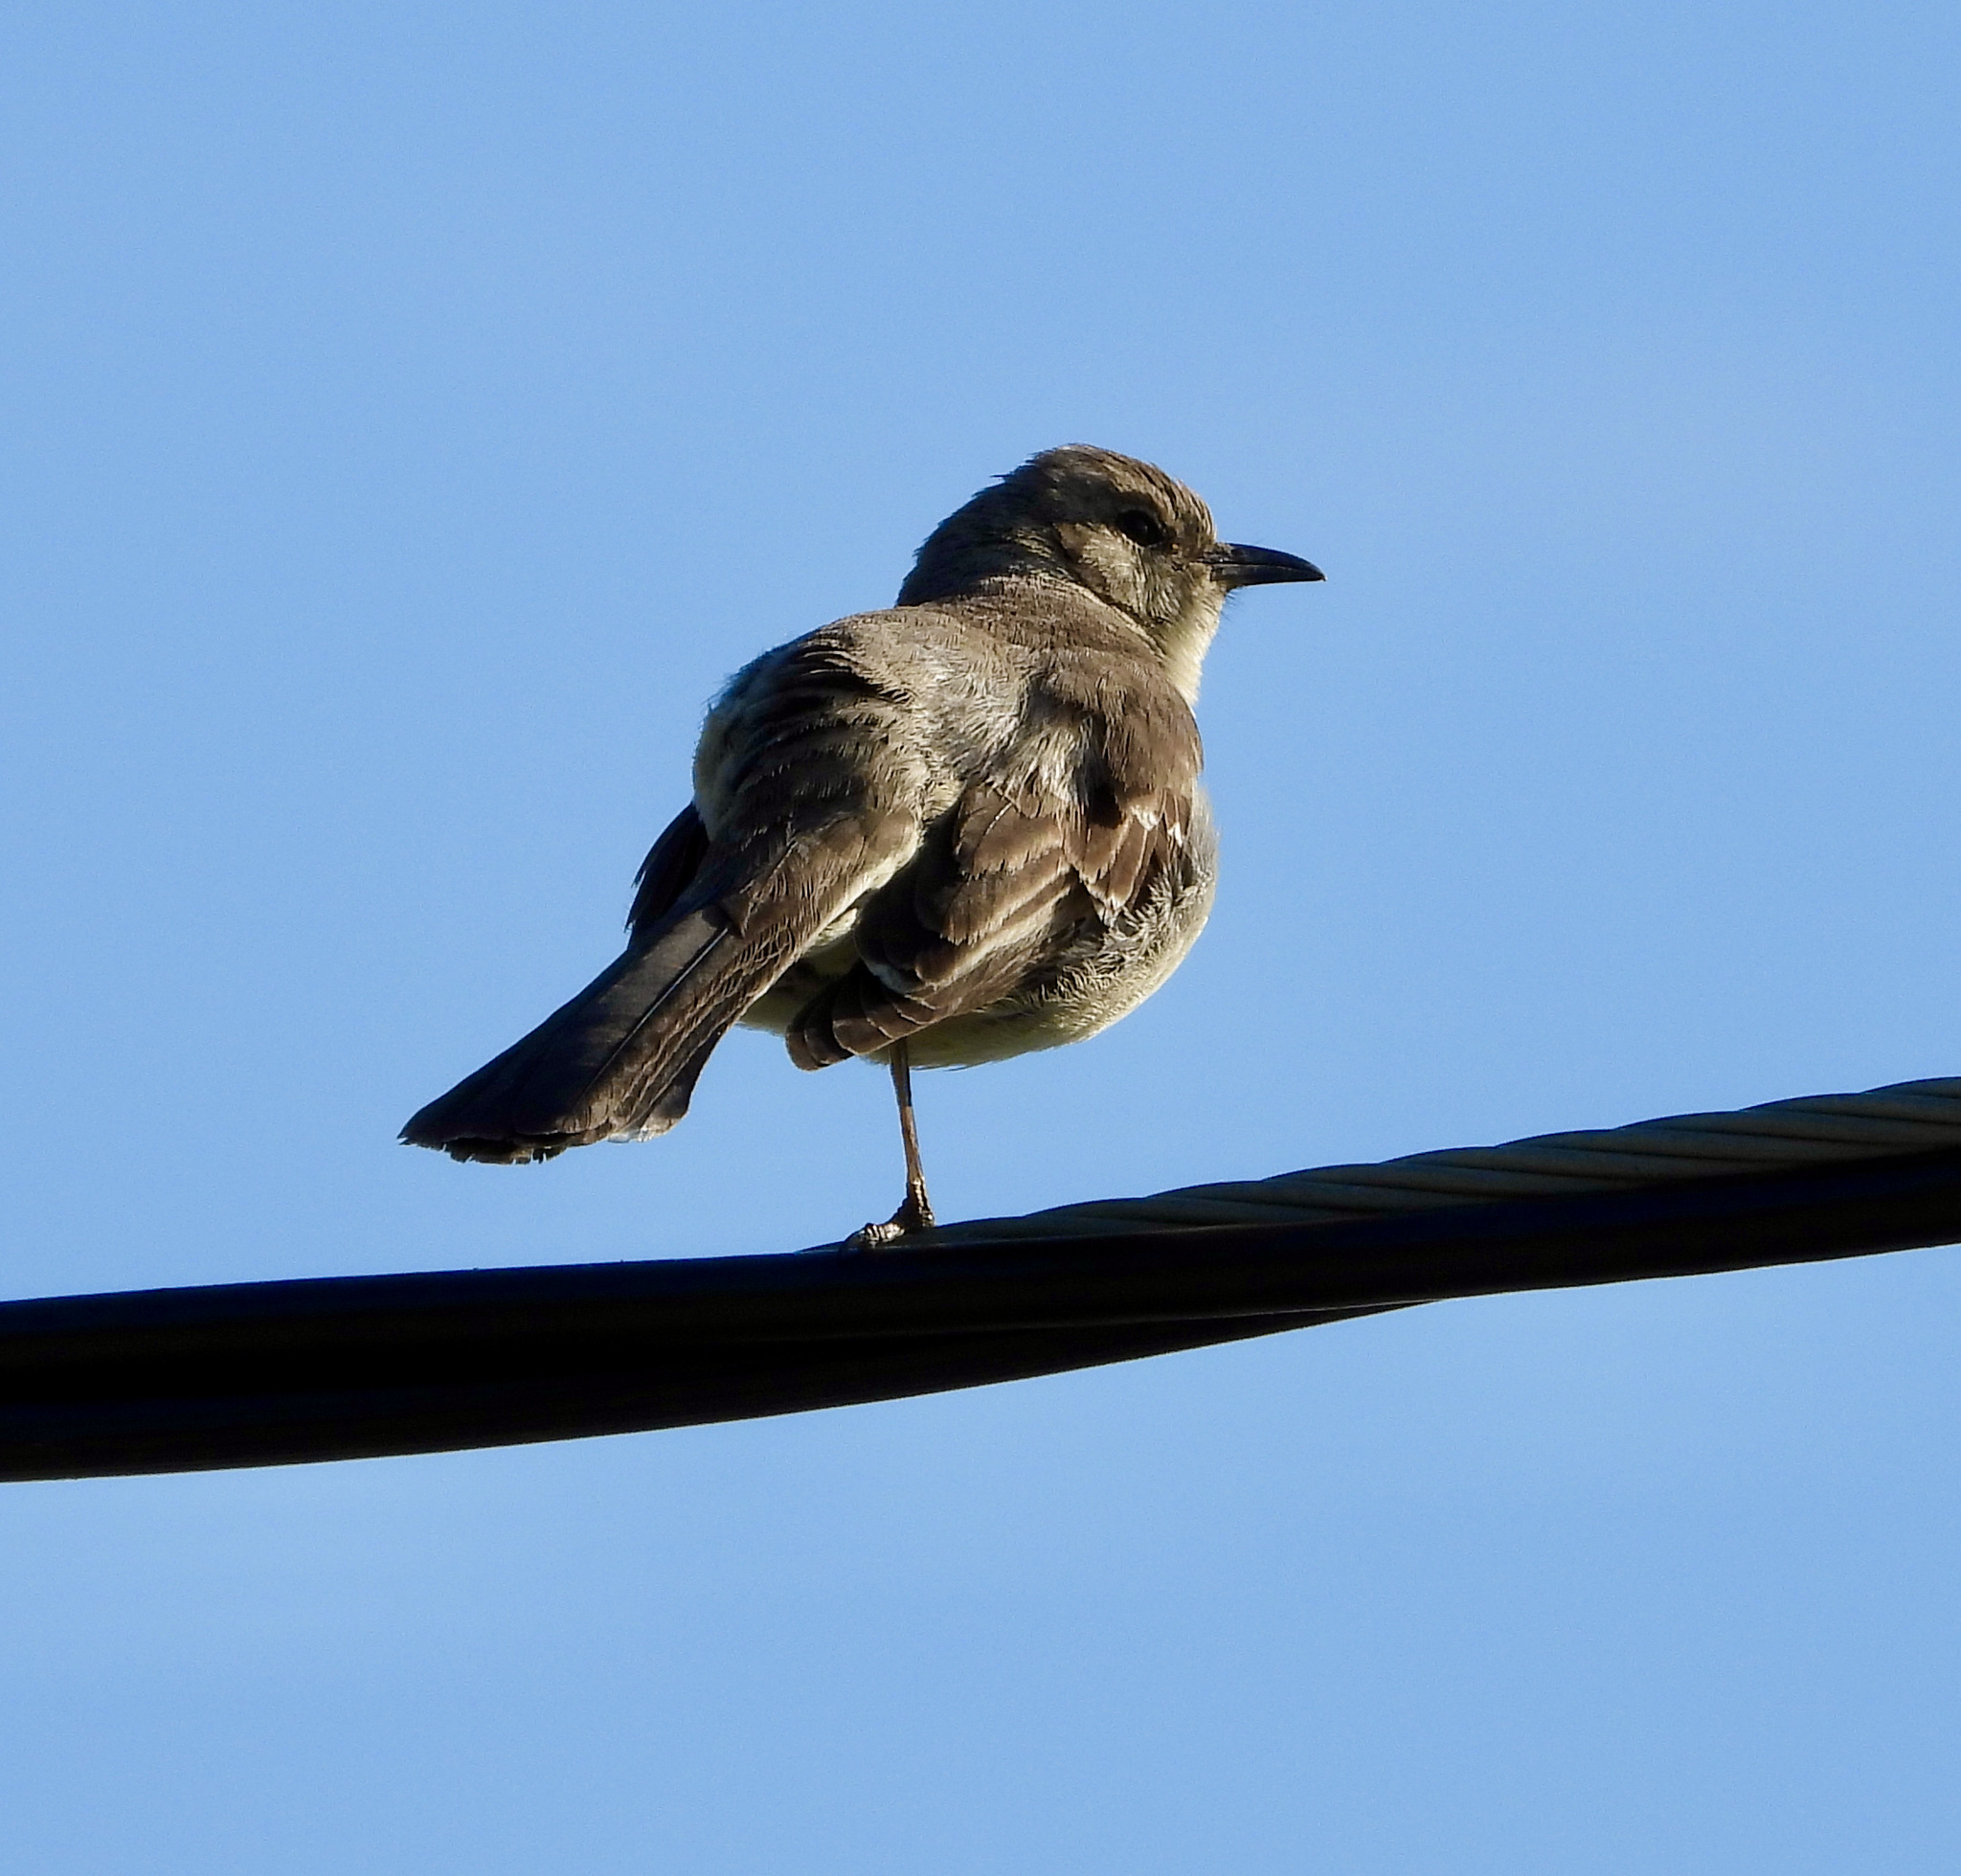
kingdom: Animalia
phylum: Chordata
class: Aves
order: Passeriformes
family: Mimidae
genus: Mimus
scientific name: Mimus polyglottos
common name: Northern mockingbird
